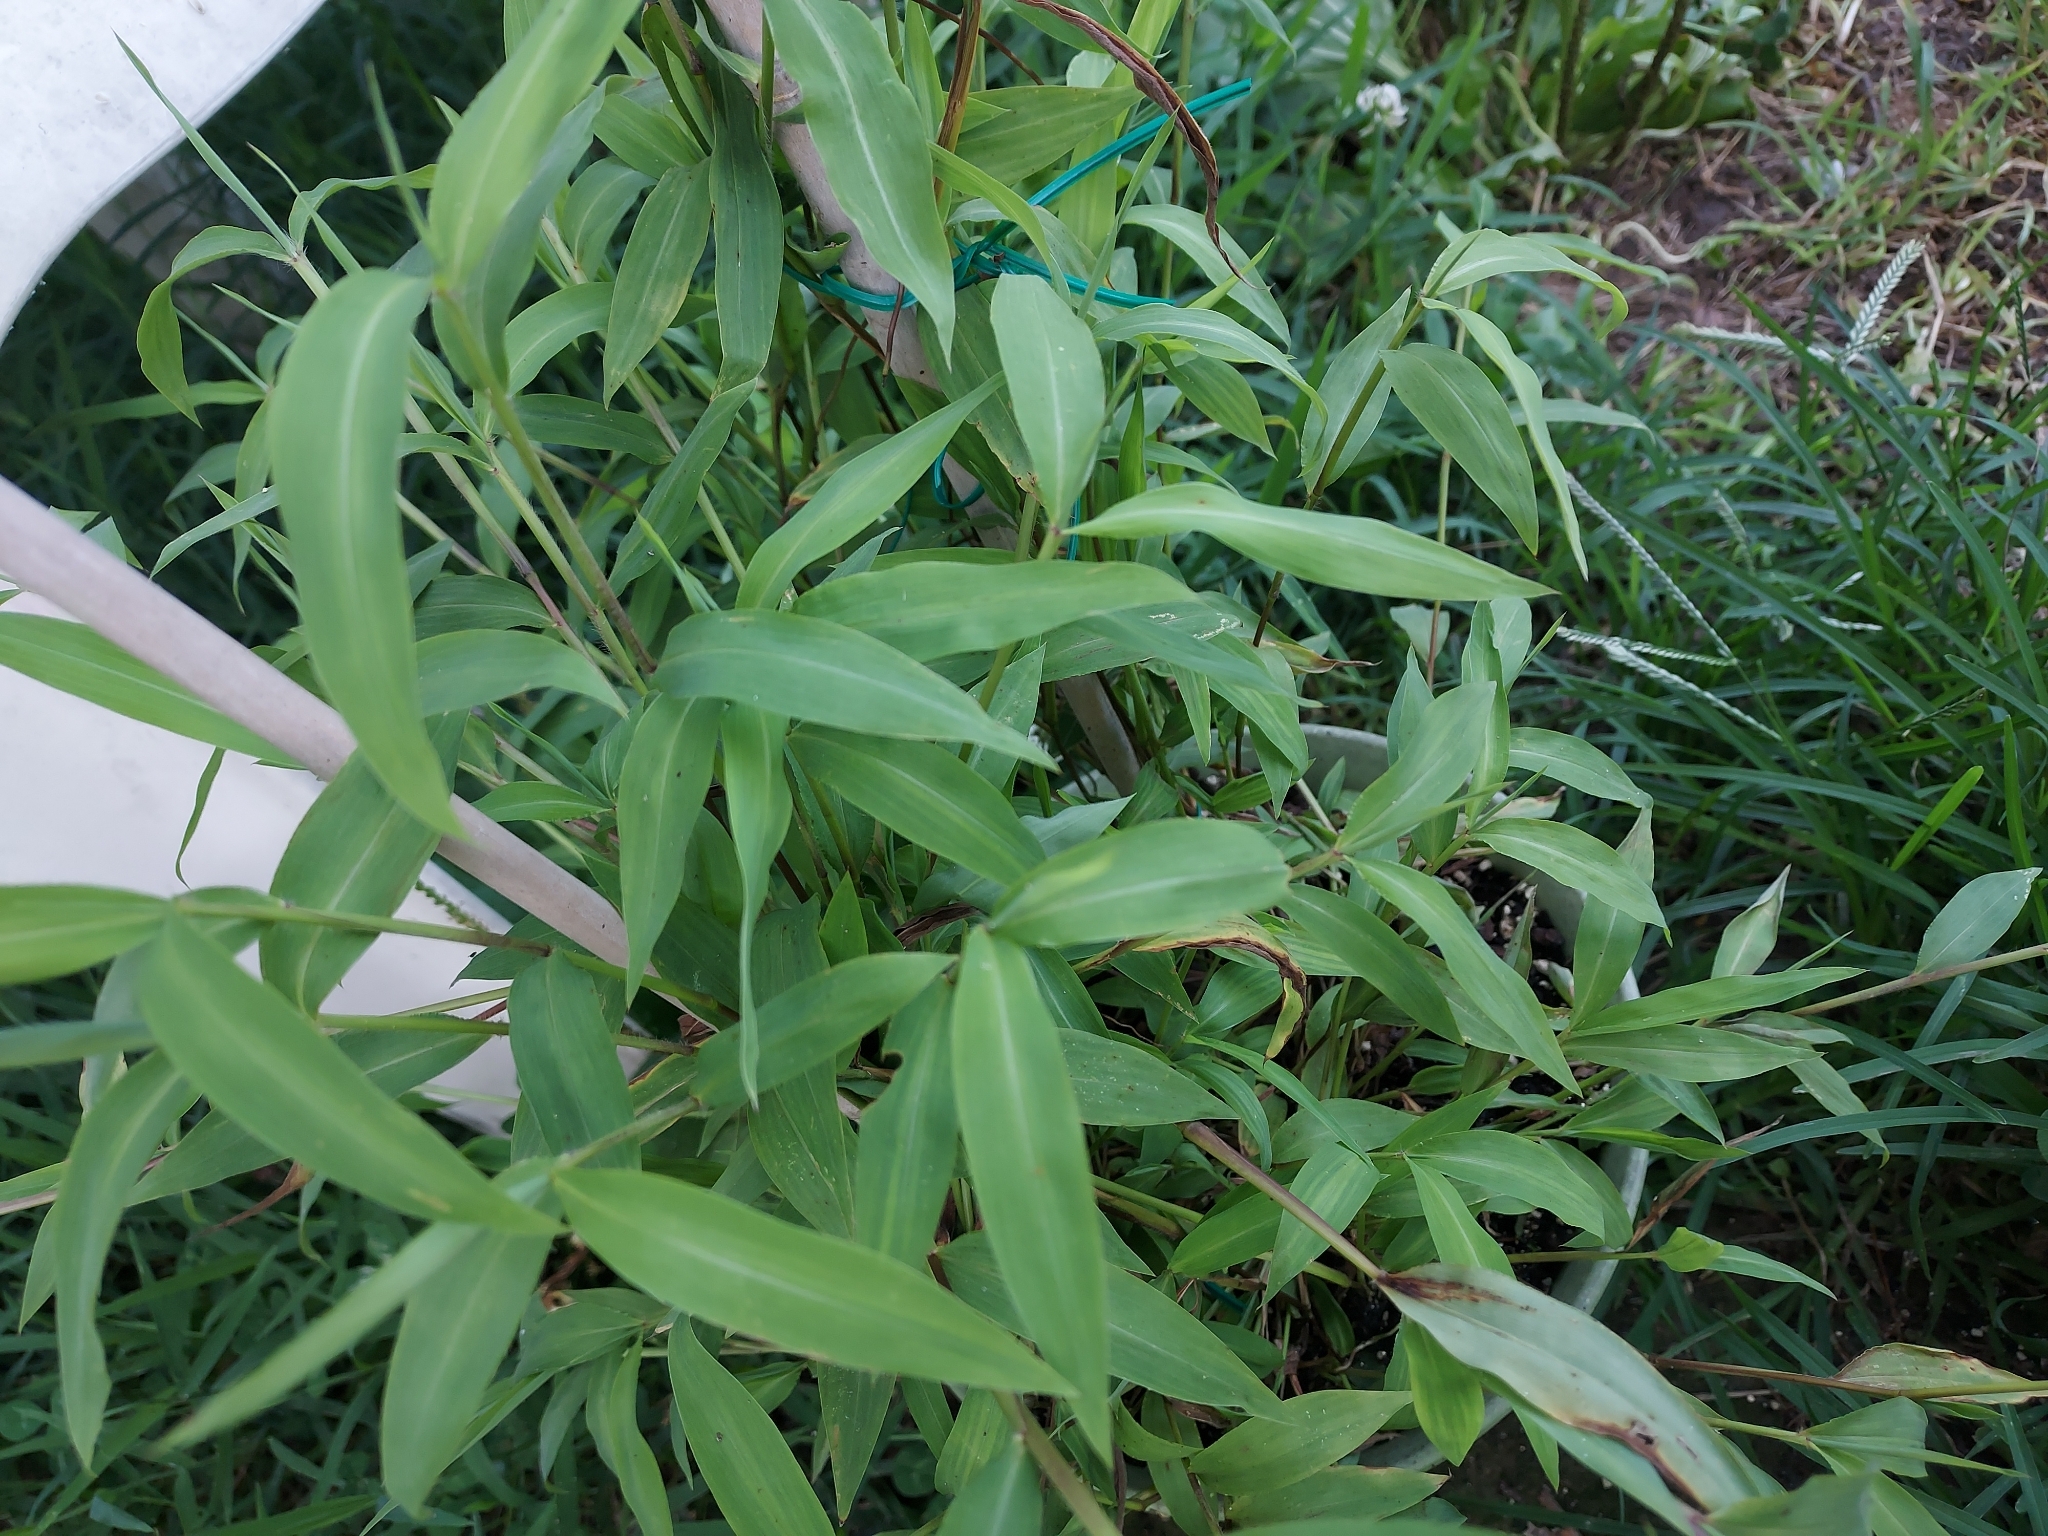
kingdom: Plantae
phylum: Tracheophyta
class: Liliopsida
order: Poales
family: Poaceae
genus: Microstegium
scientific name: Microstegium vimineum
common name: Japanese stiltgrass
